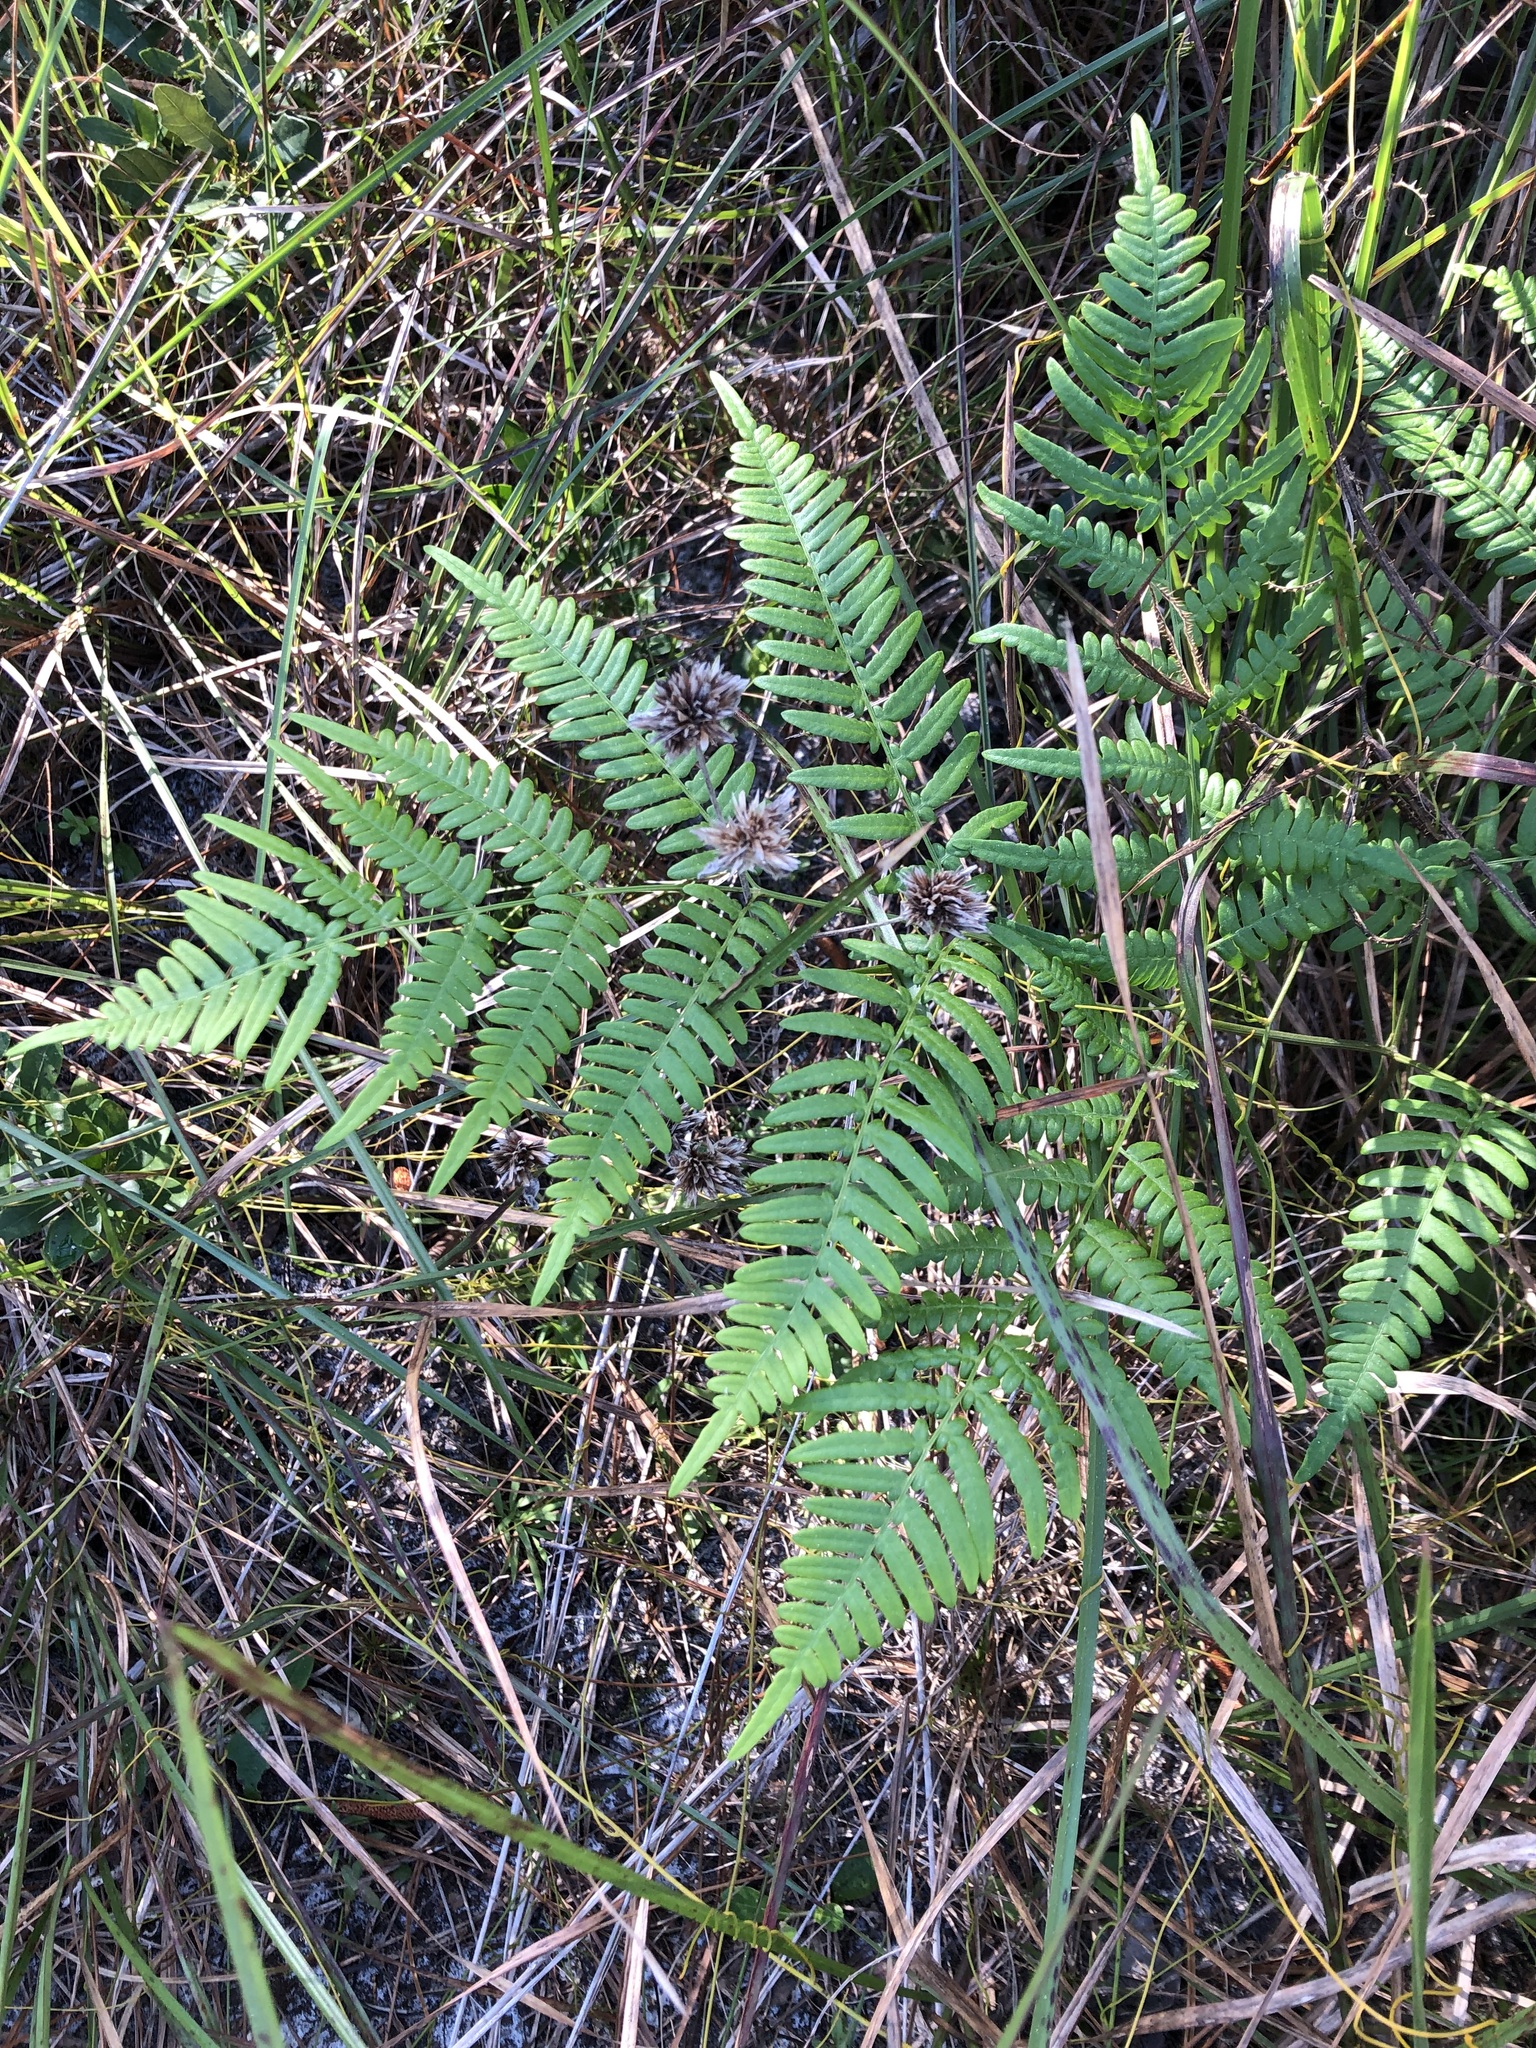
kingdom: Plantae
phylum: Tracheophyta
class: Polypodiopsida
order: Polypodiales
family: Dennstaedtiaceae
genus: Pteridium
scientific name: Pteridium aquilinum
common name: Bracken
